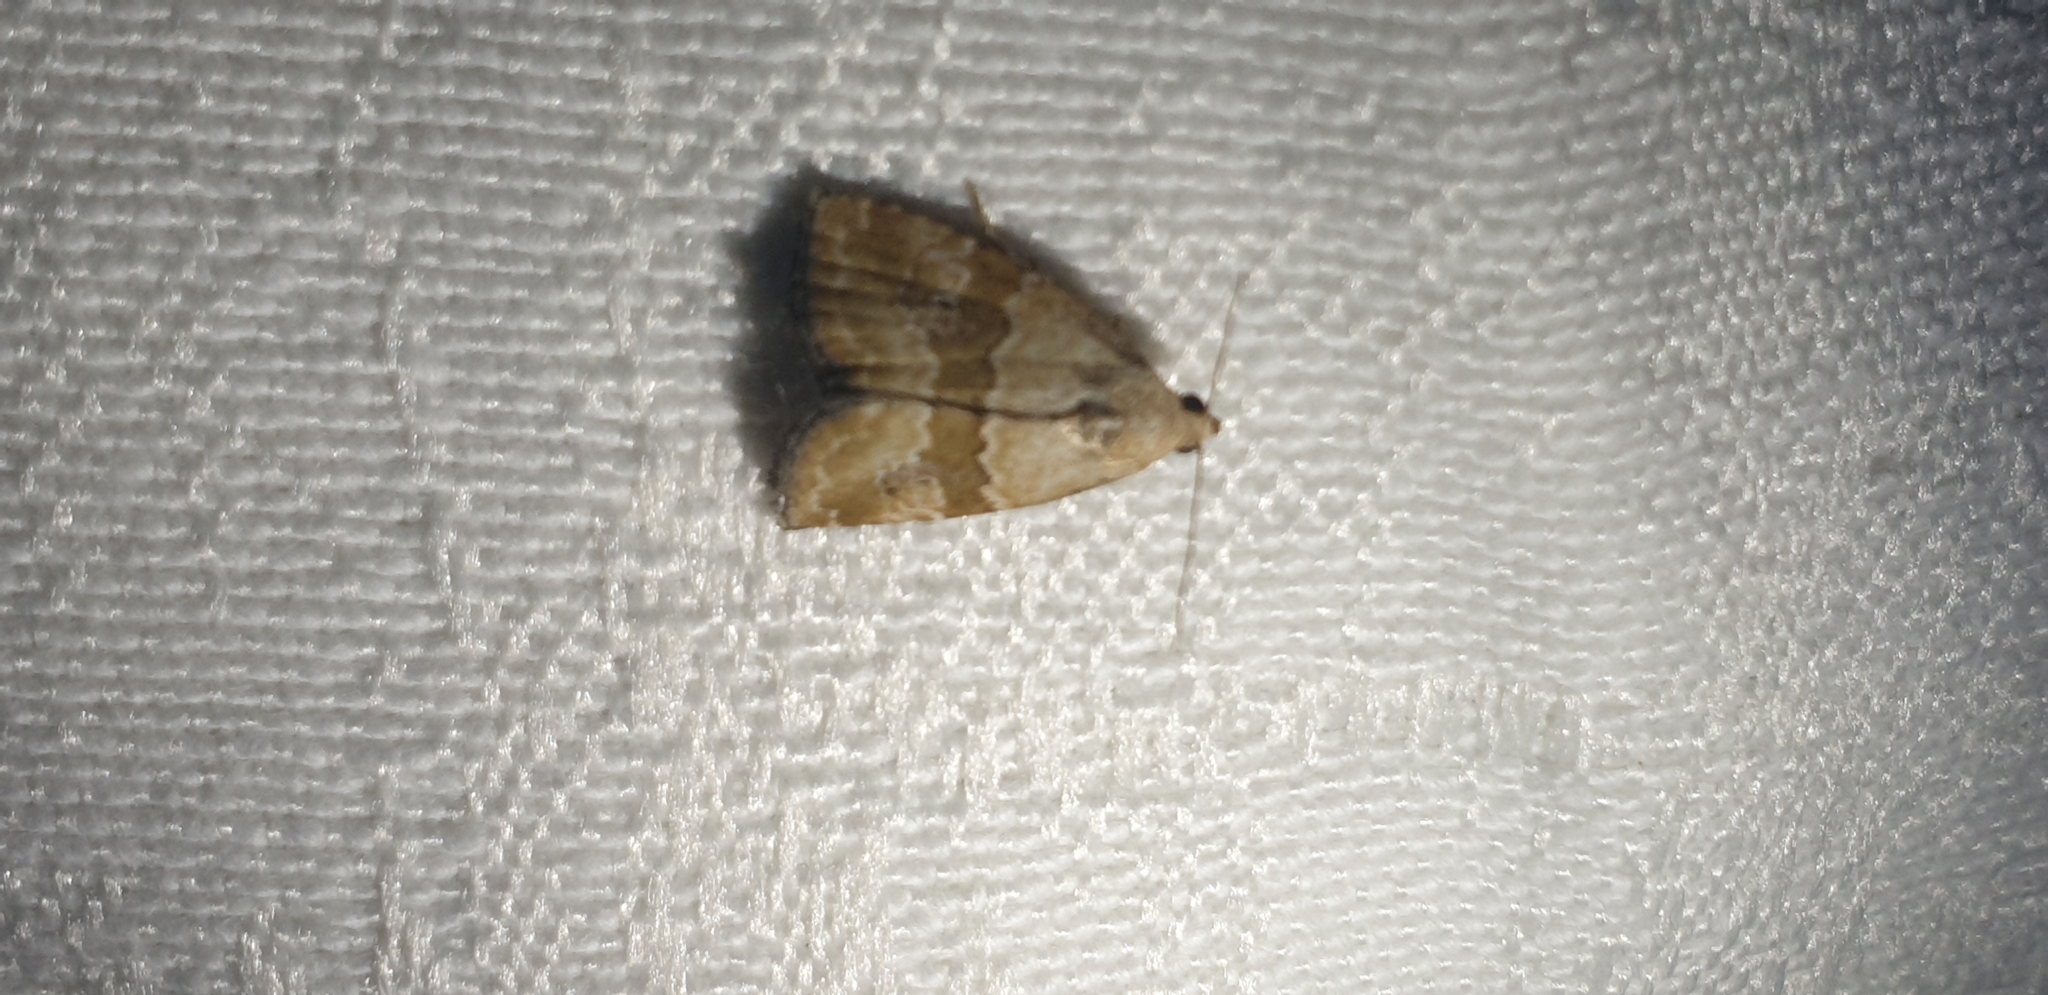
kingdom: Animalia
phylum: Arthropoda
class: Insecta
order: Lepidoptera
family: Noctuidae
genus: Maliattha
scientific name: Maliattha amorpha
